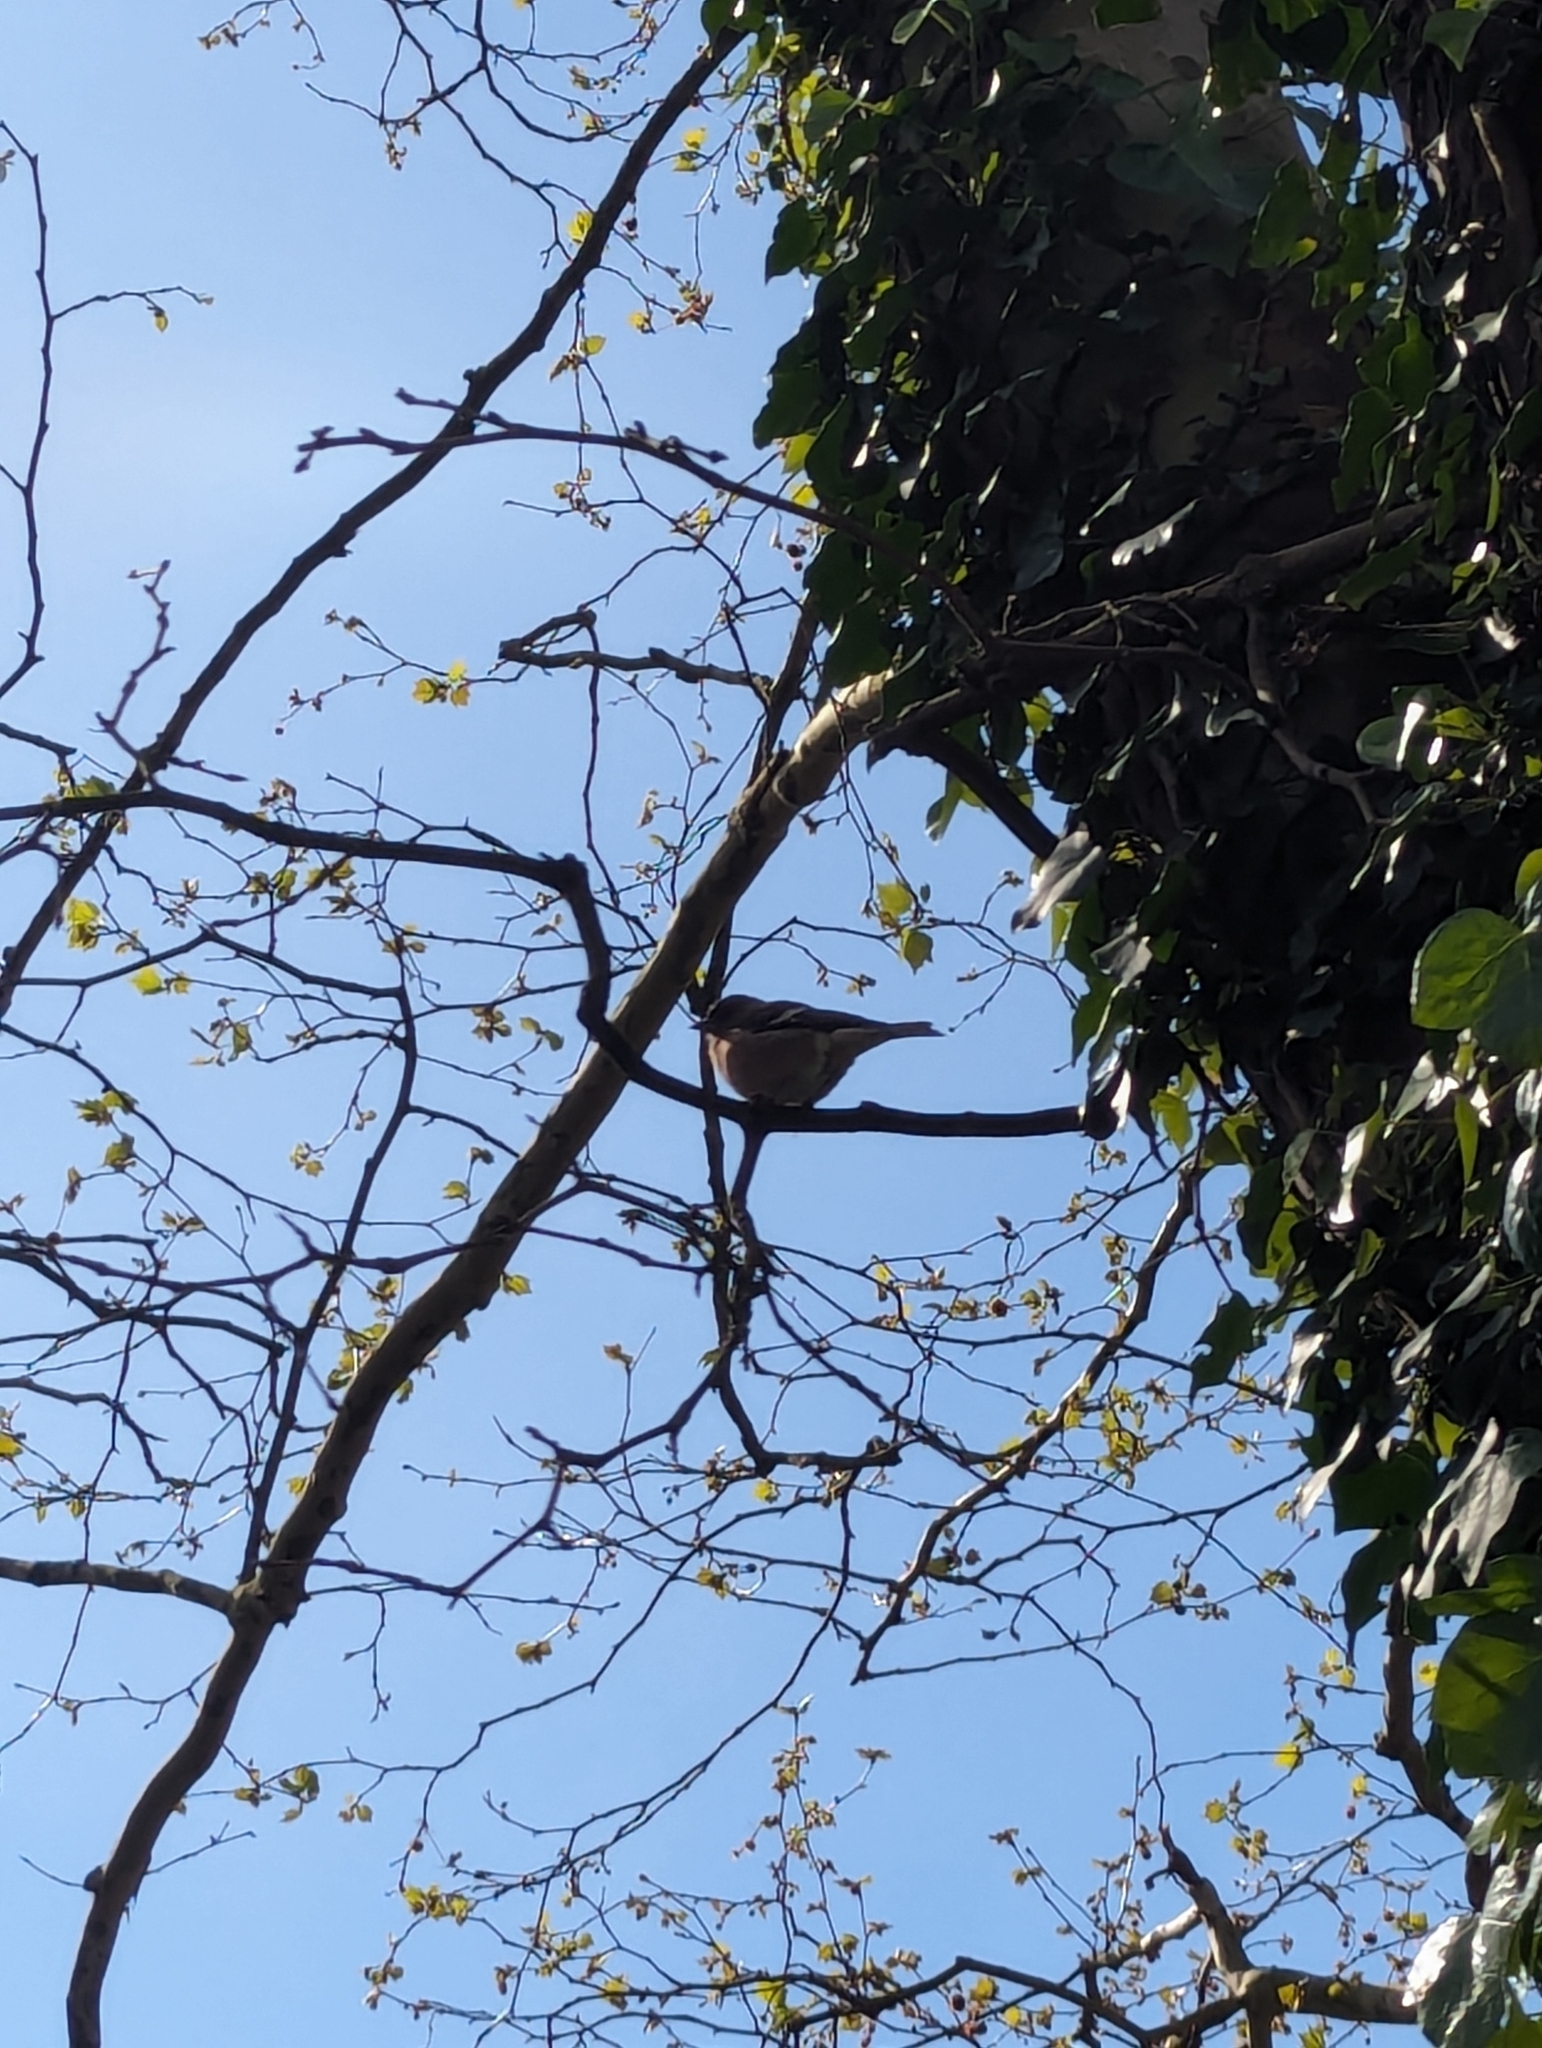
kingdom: Animalia
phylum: Chordata
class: Aves
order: Passeriformes
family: Fringillidae
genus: Fringilla
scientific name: Fringilla coelebs
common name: Common chaffinch
